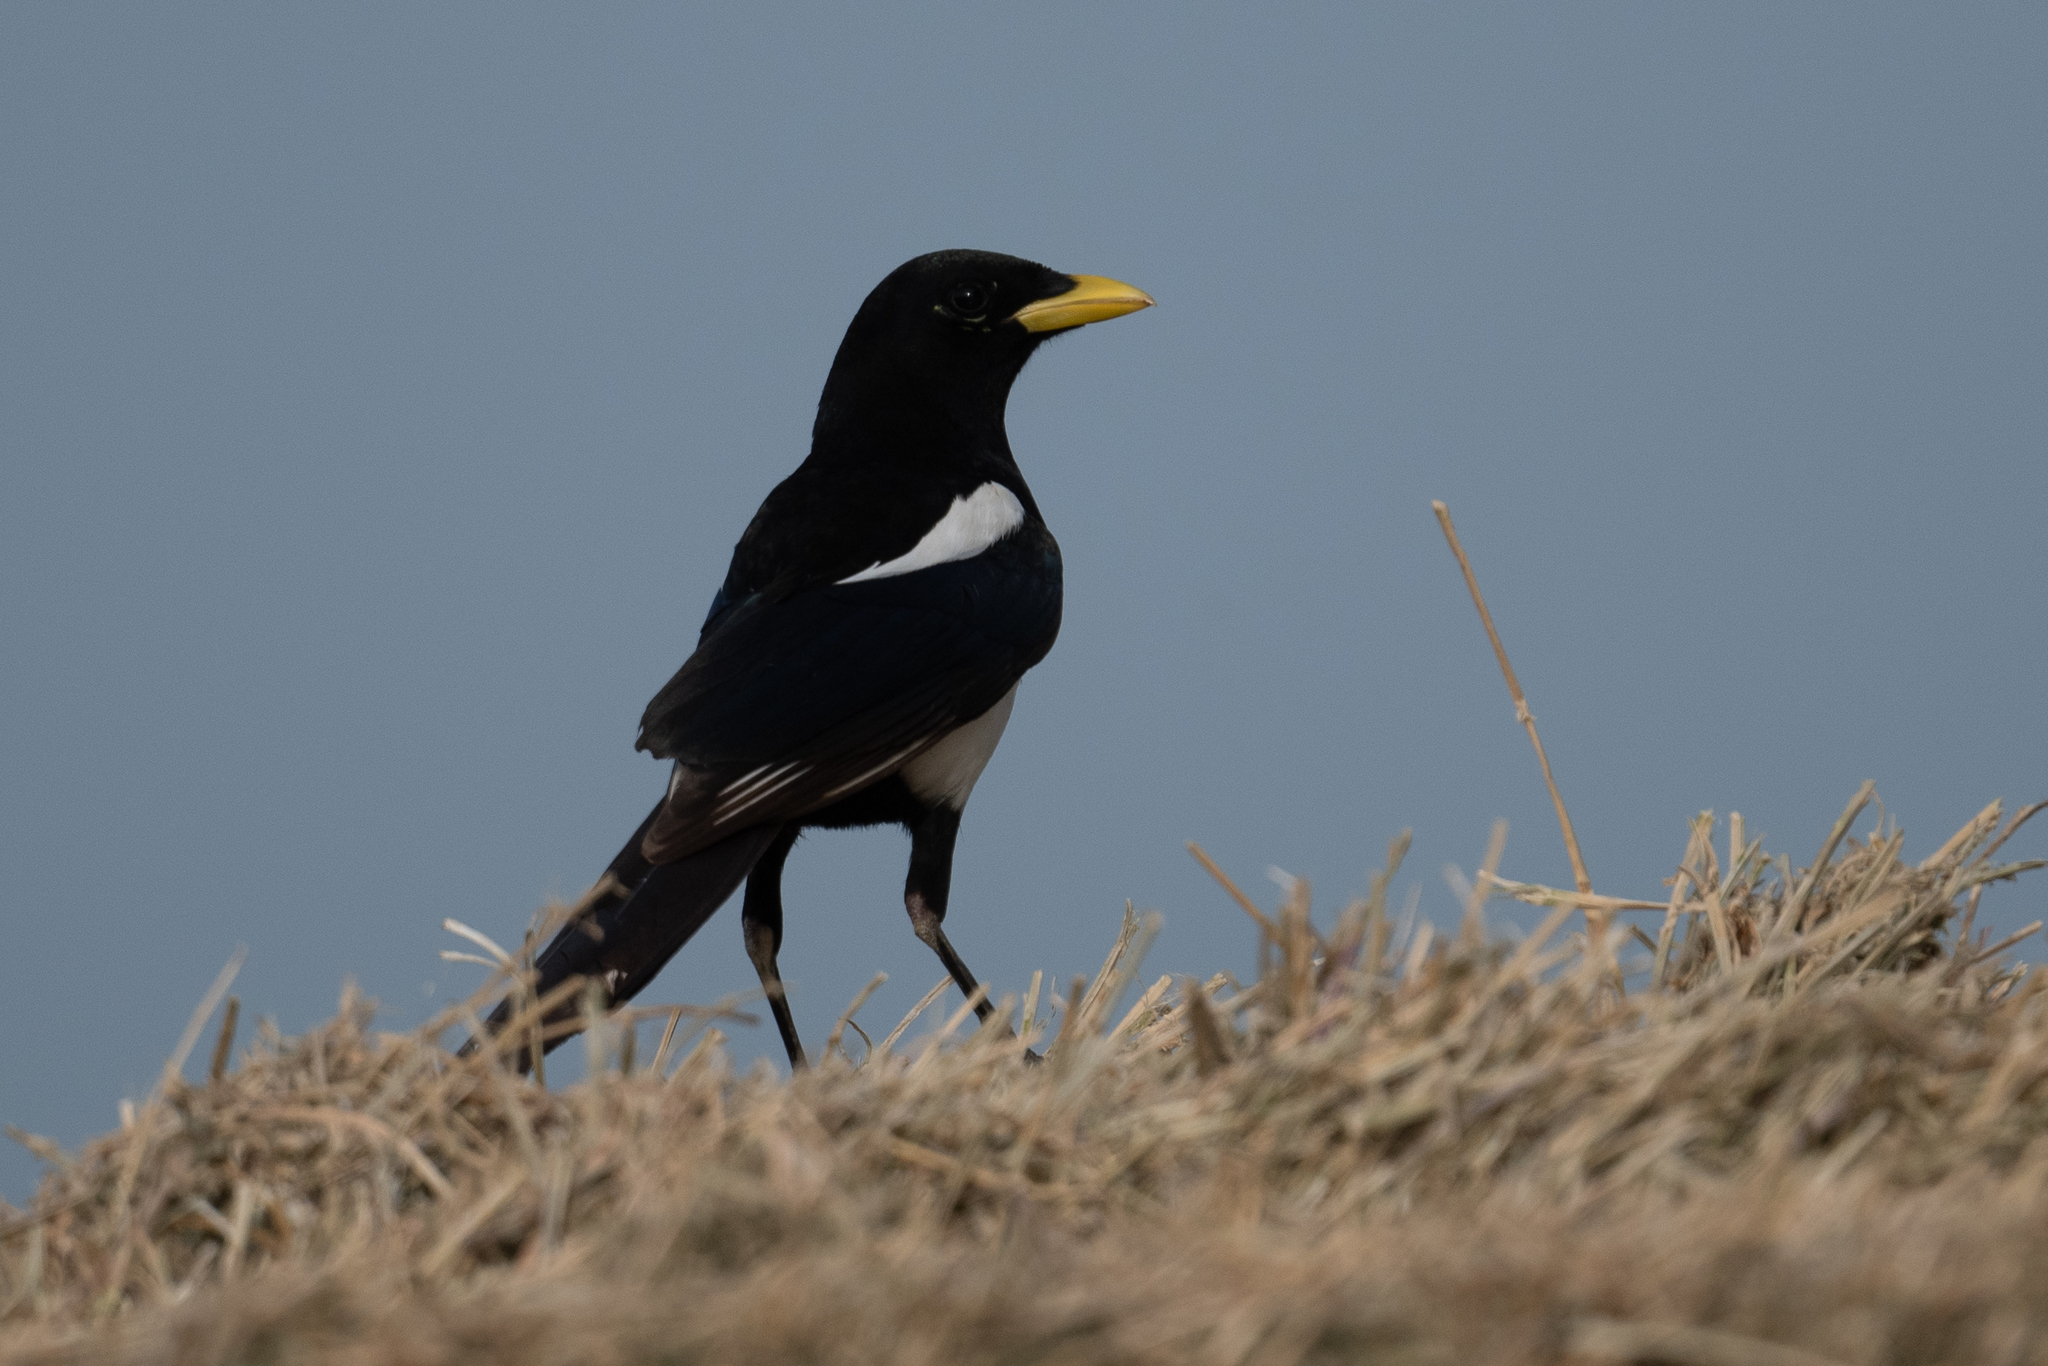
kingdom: Animalia
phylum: Chordata
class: Aves
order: Passeriformes
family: Corvidae
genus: Pica
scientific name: Pica nuttalli
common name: Yellow-billed magpie
